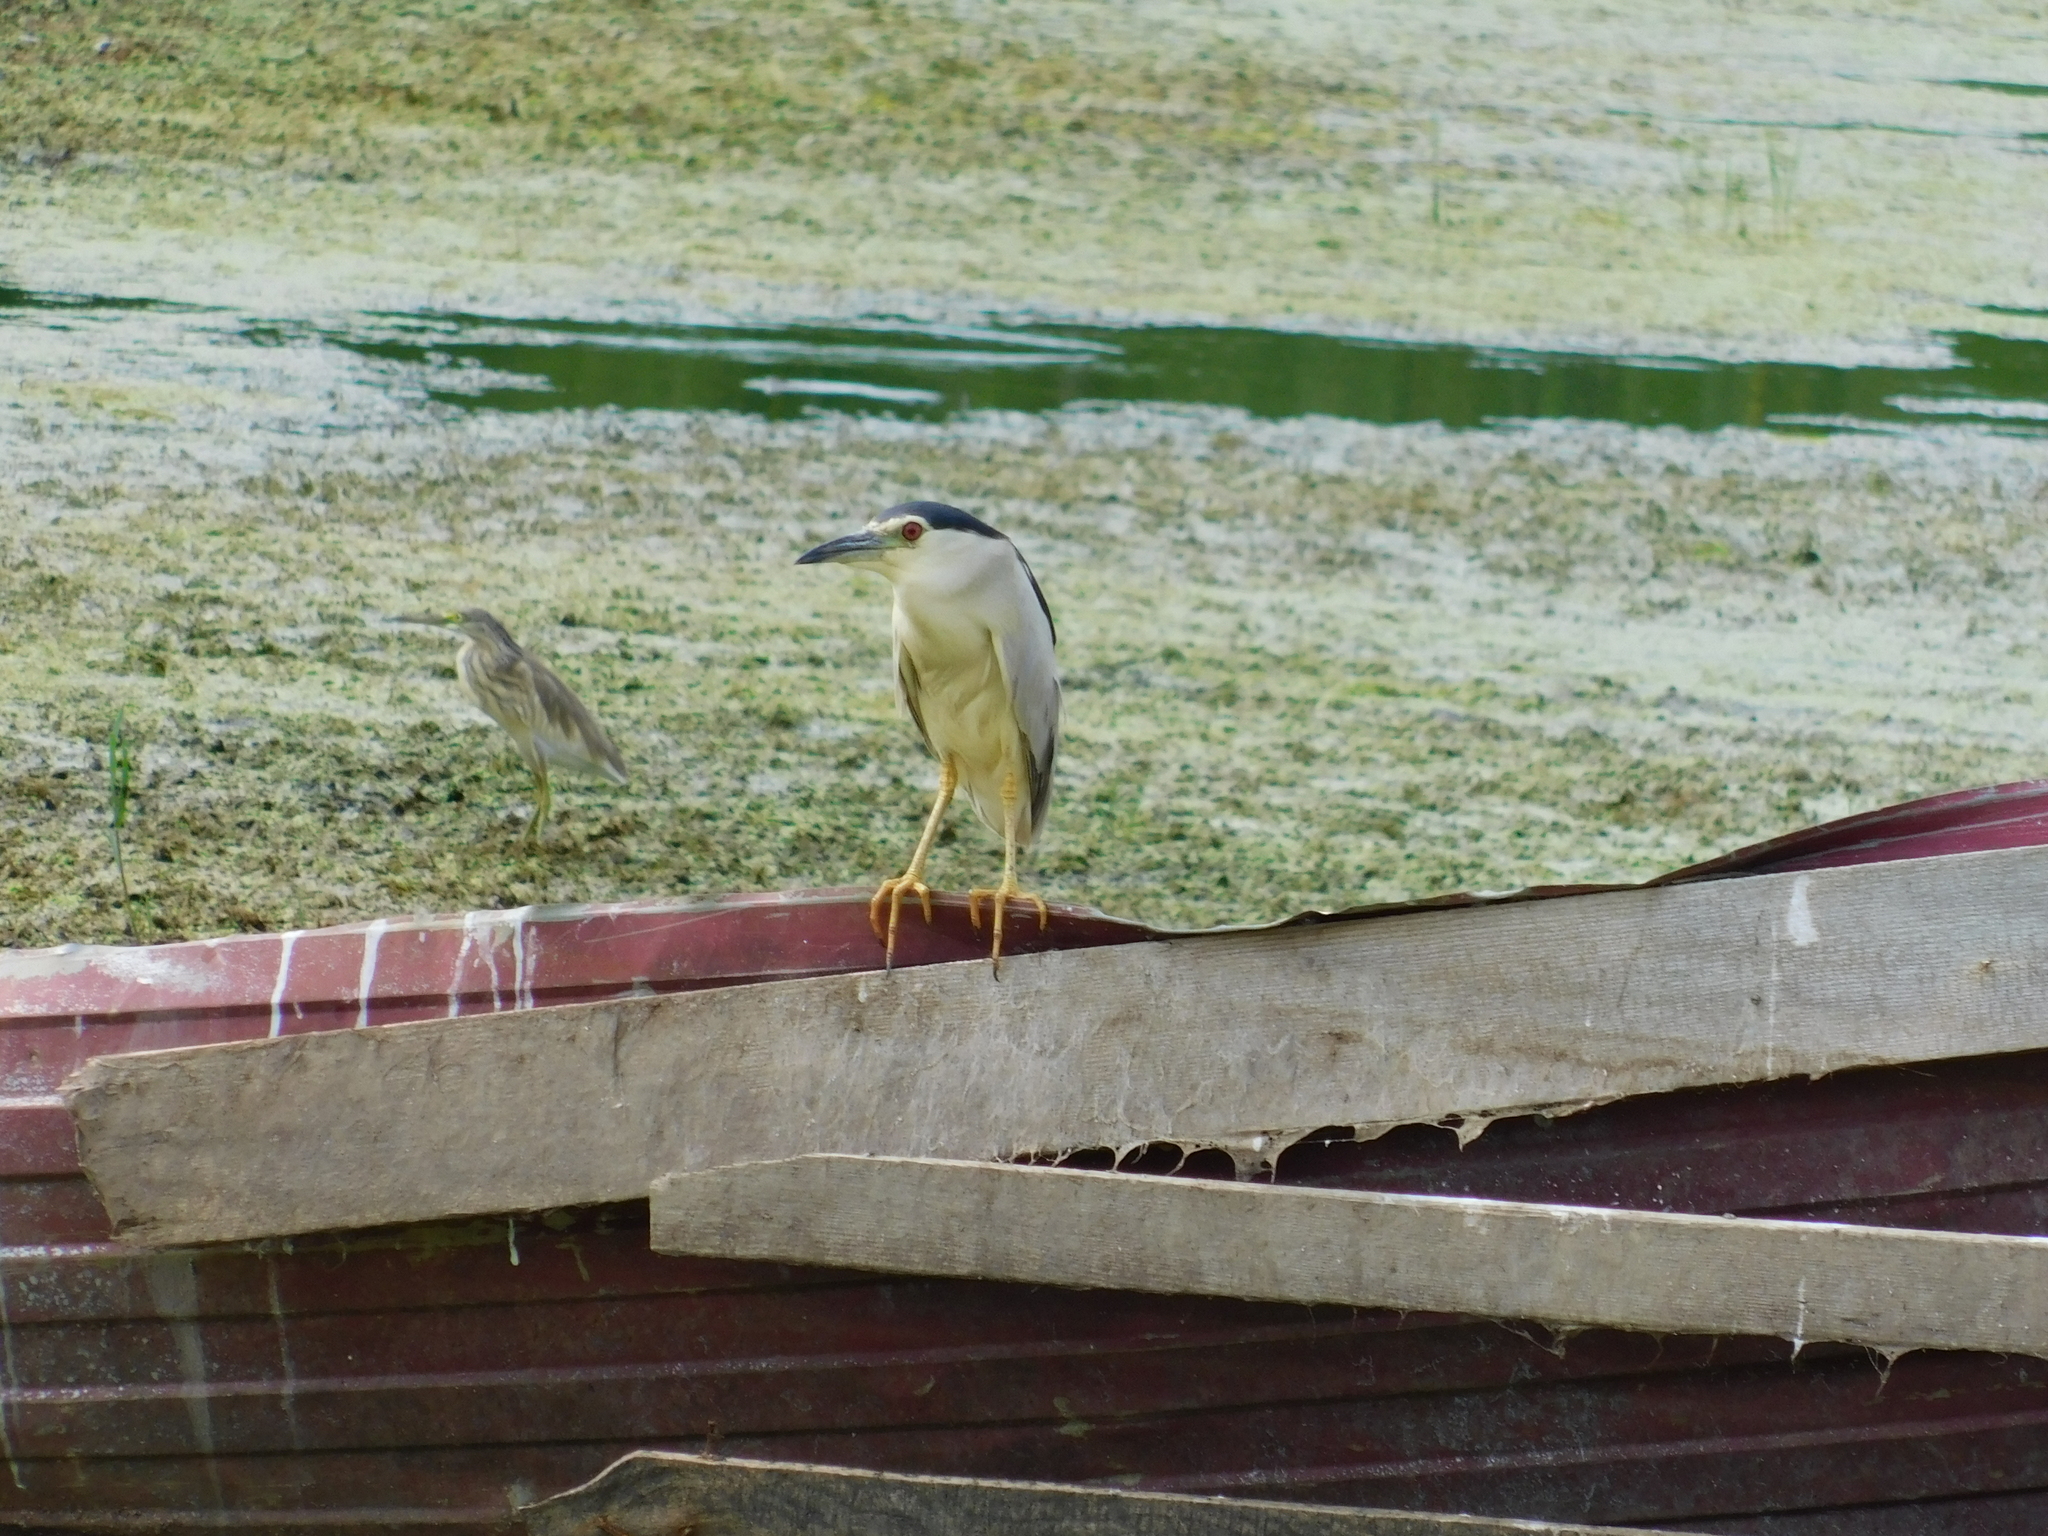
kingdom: Animalia
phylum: Chordata
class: Aves
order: Pelecaniformes
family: Ardeidae
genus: Nycticorax
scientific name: Nycticorax nycticorax
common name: Black-crowned night heron
